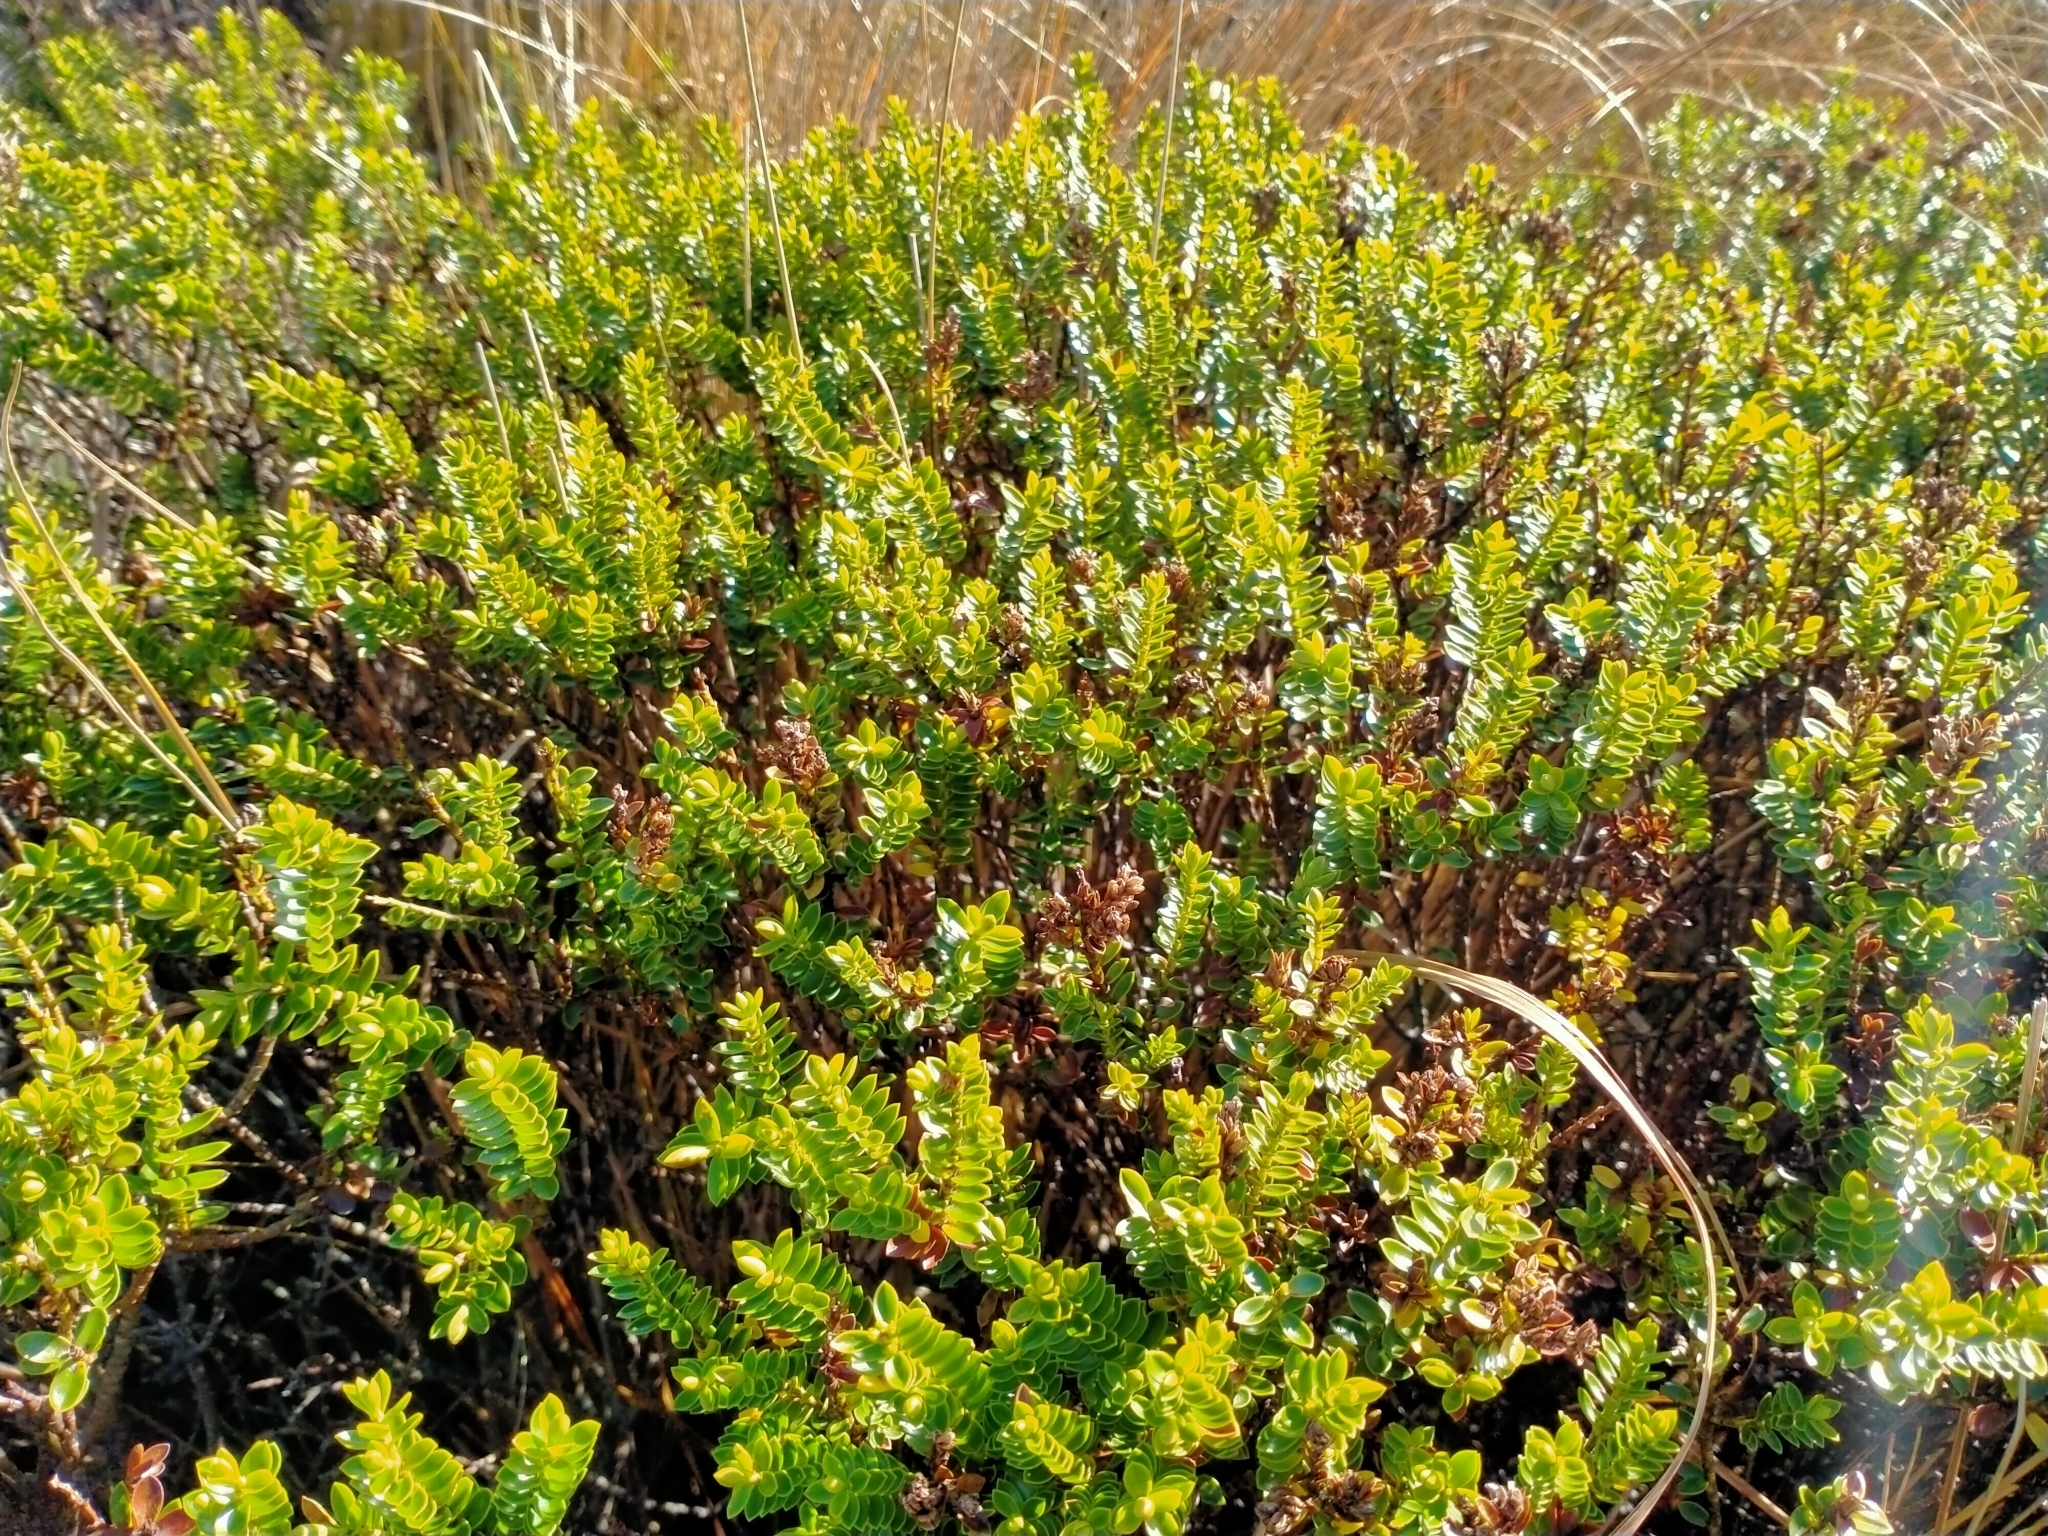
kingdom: Plantae
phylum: Tracheophyta
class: Magnoliopsida
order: Lamiales
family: Plantaginaceae
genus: Veronica
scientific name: Veronica odora
